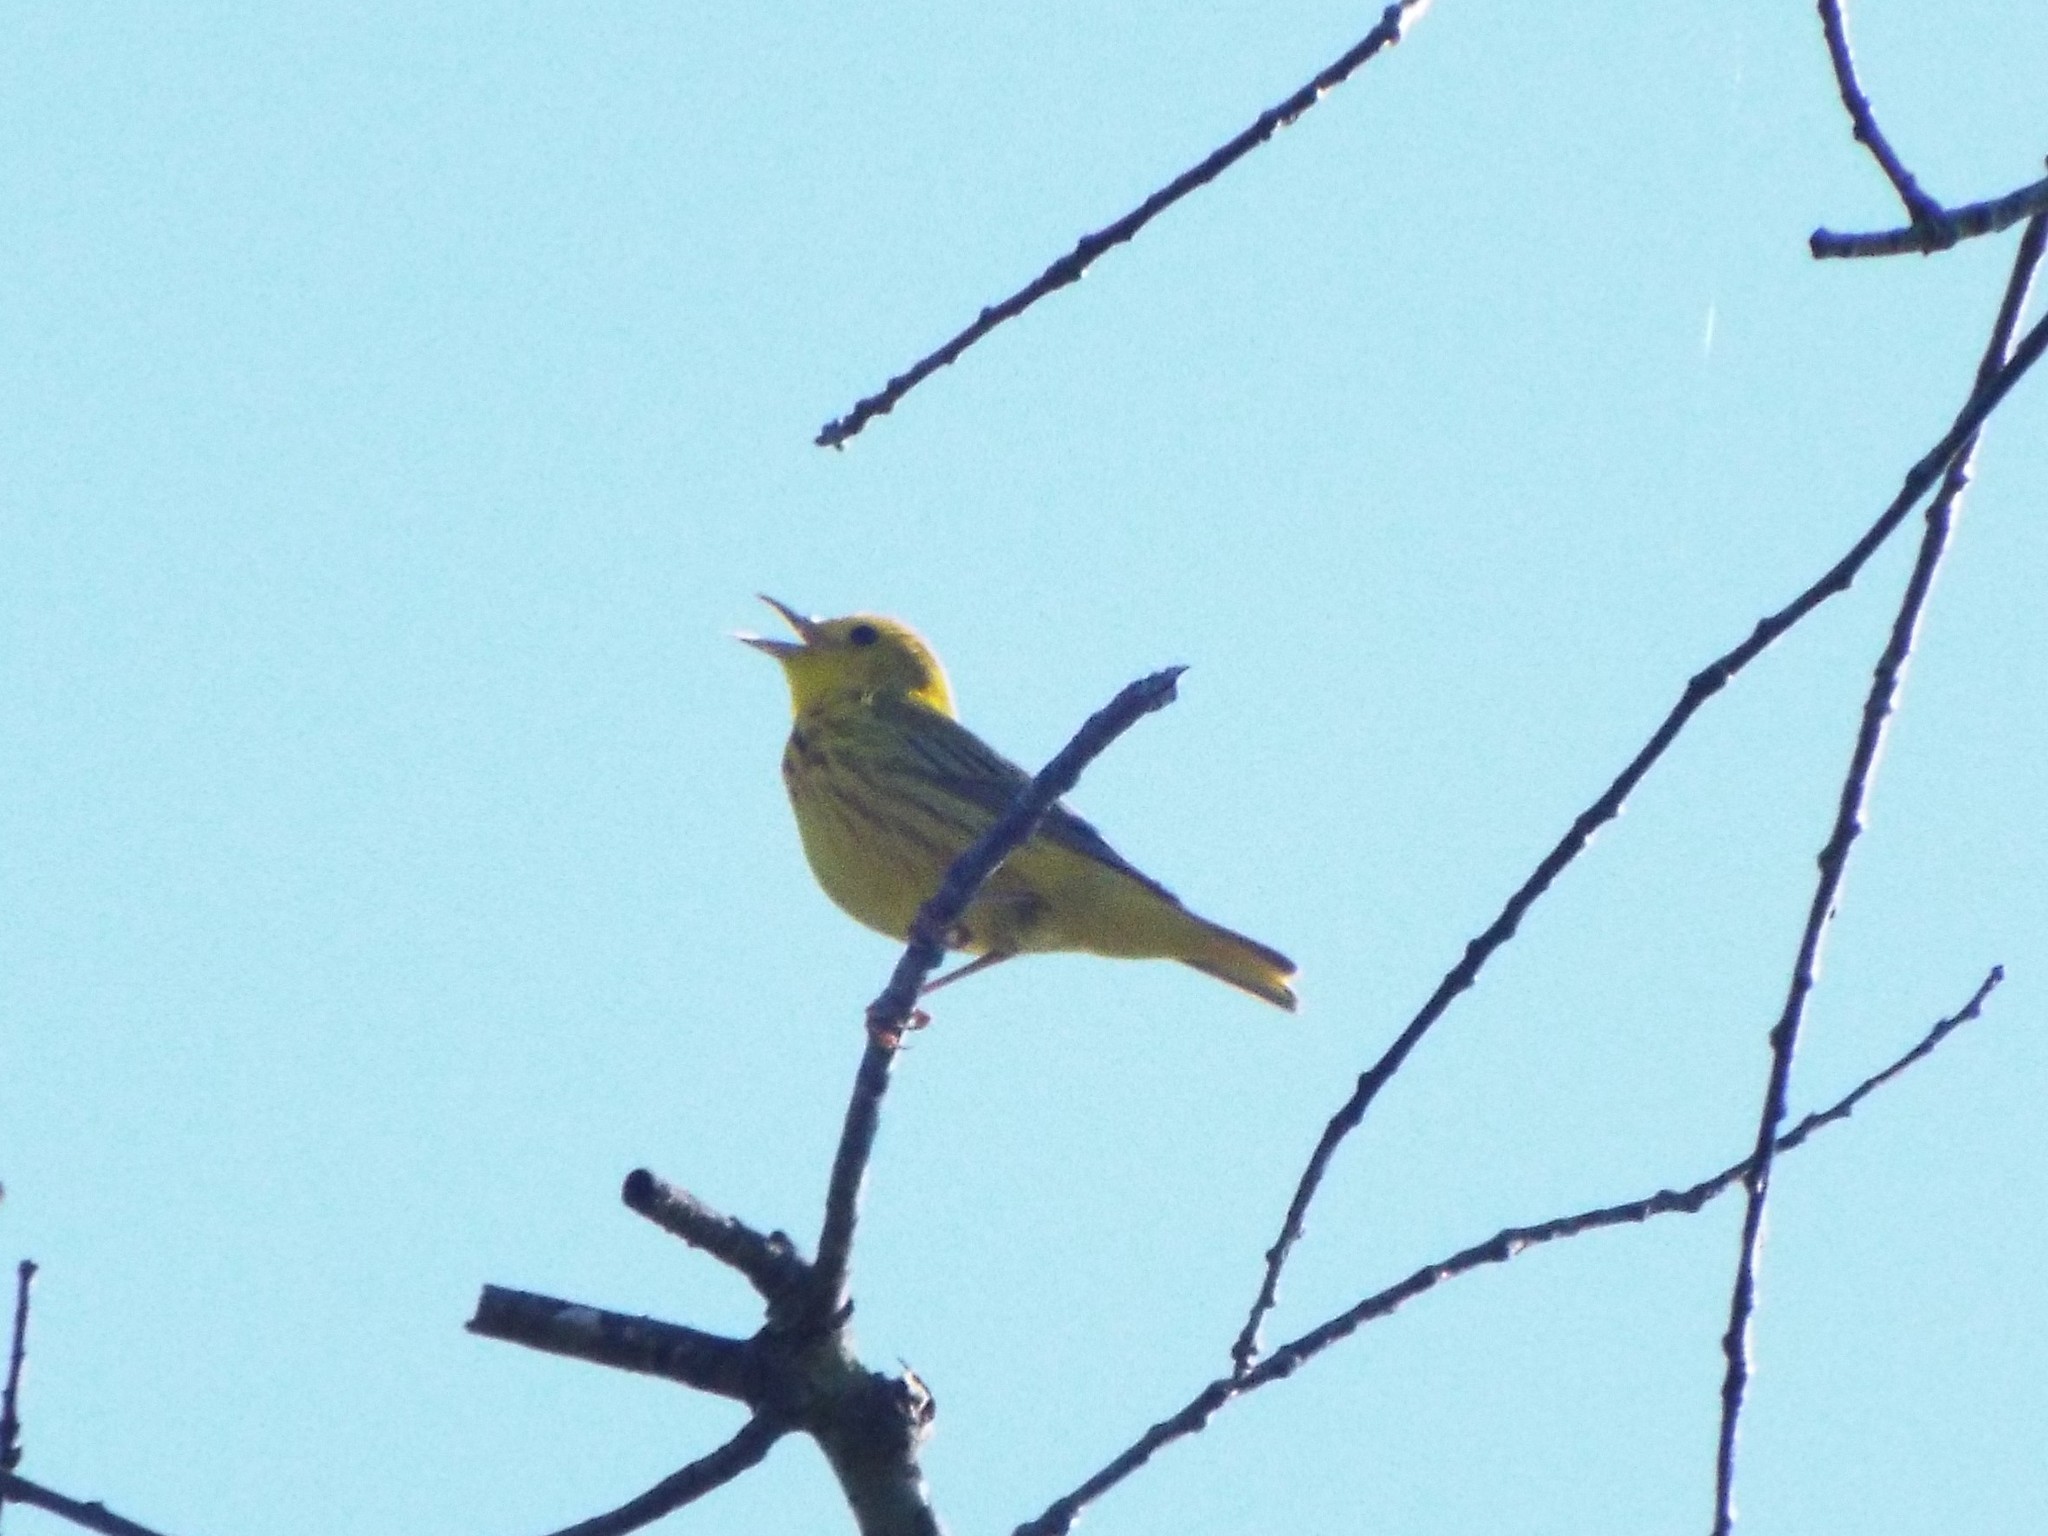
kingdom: Animalia
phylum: Chordata
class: Aves
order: Passeriformes
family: Parulidae
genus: Setophaga
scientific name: Setophaga petechia
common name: Yellow warbler
